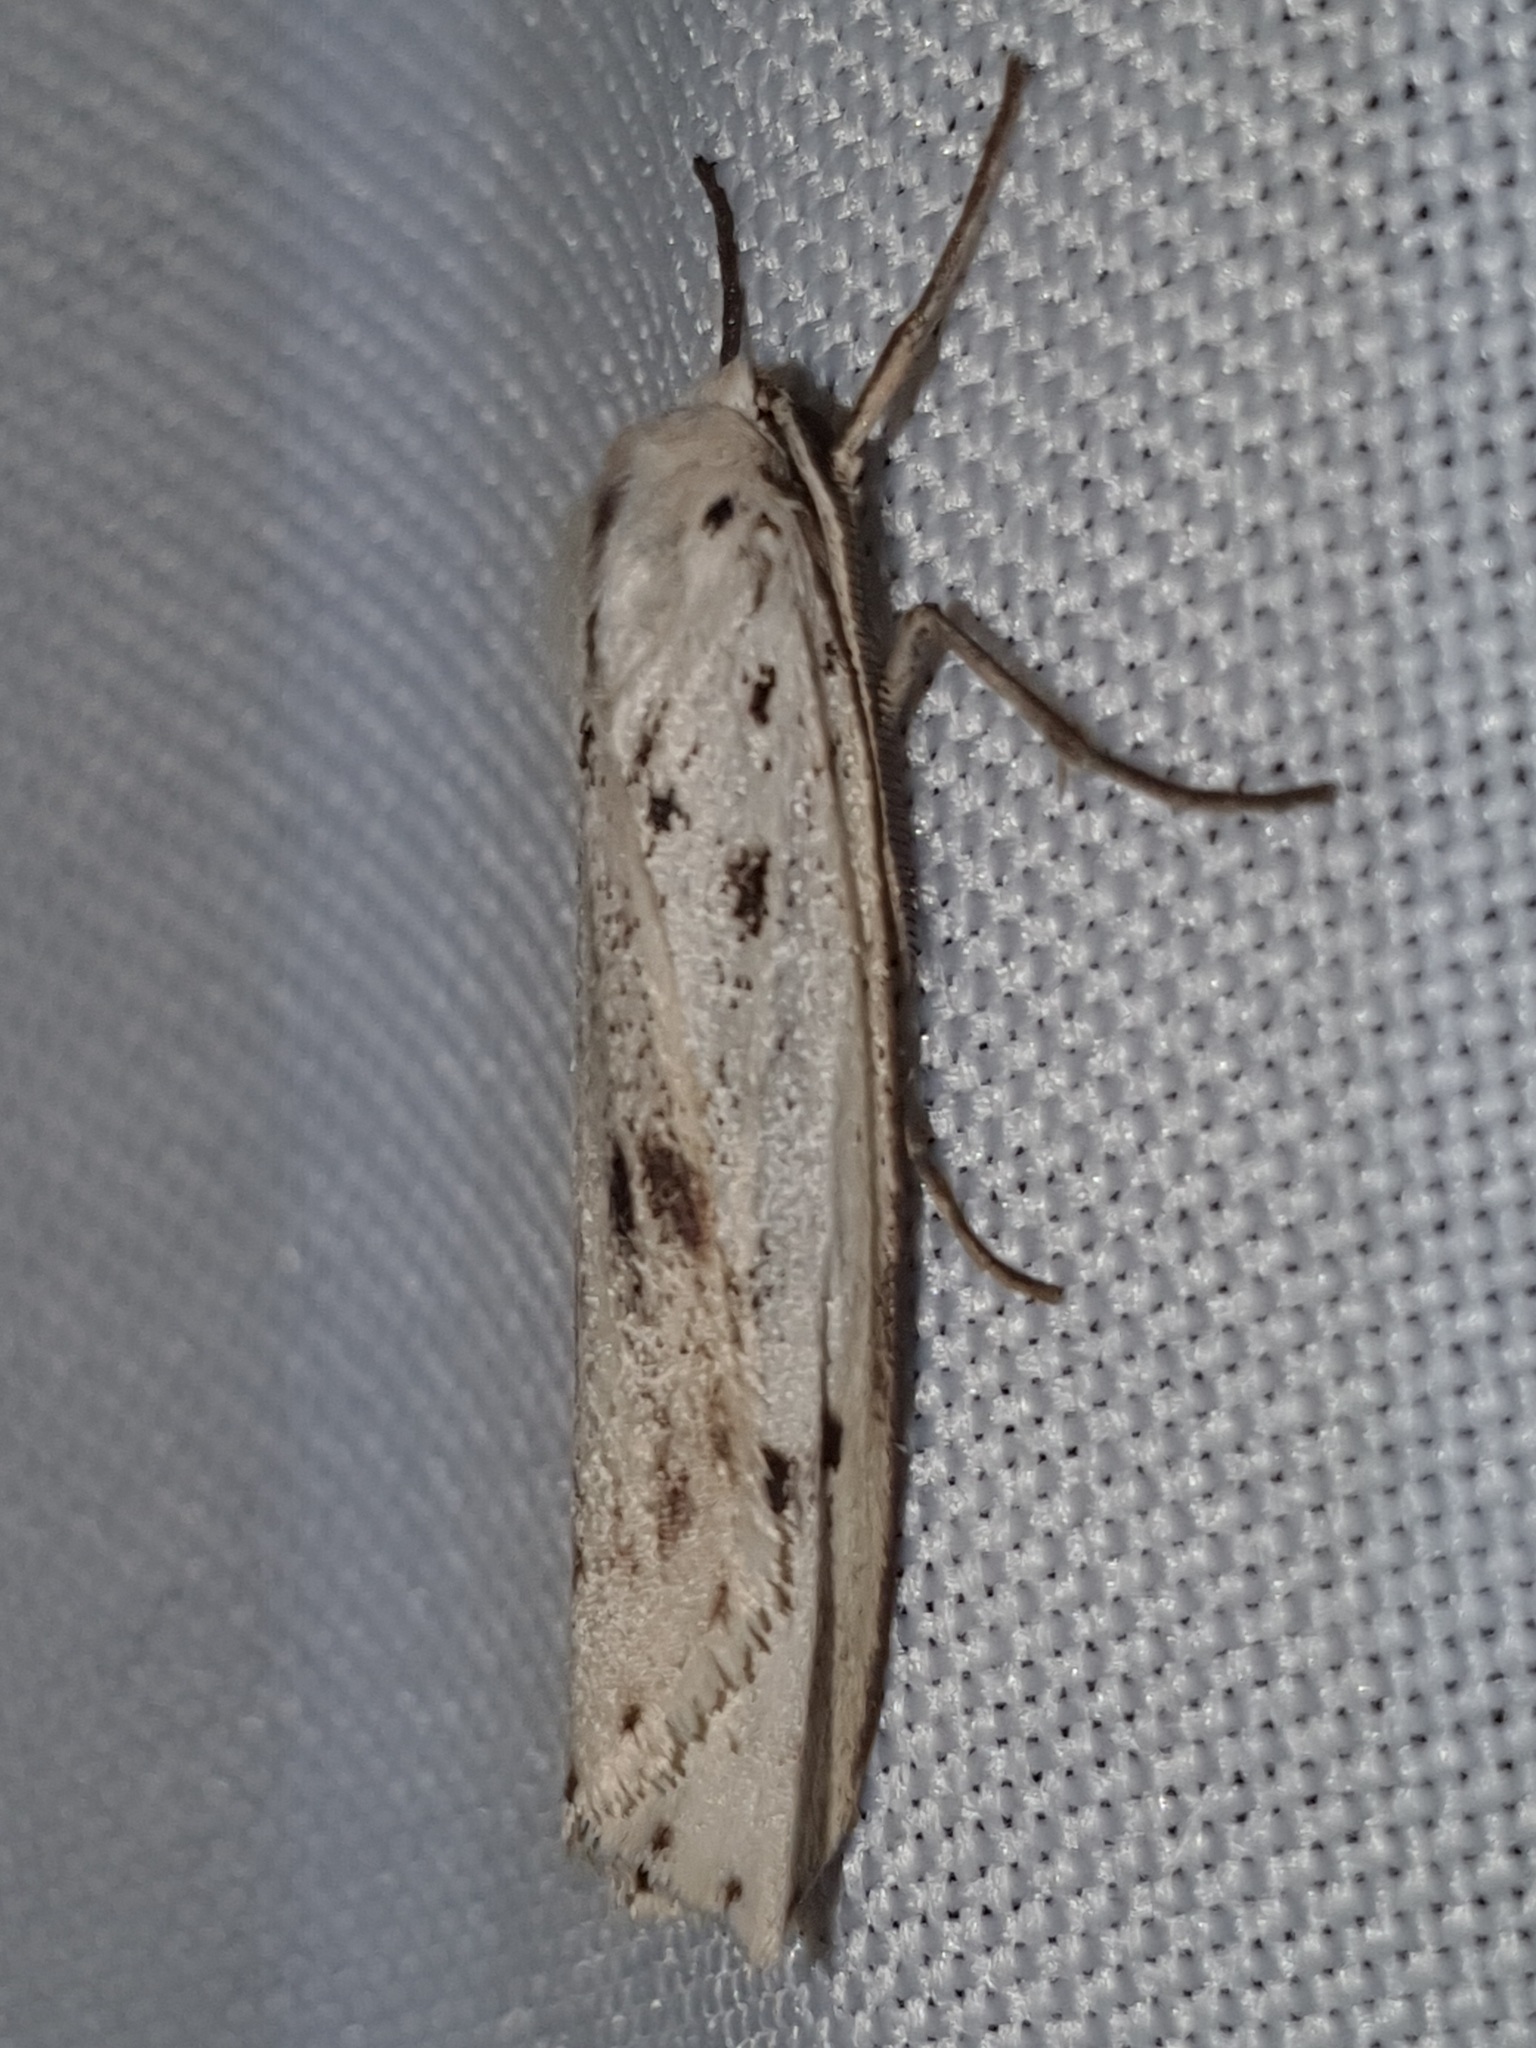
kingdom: Animalia
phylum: Arthropoda
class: Insecta
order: Lepidoptera
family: Erebidae
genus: Coscinia
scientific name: Coscinia cribraria
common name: Speckled footman
